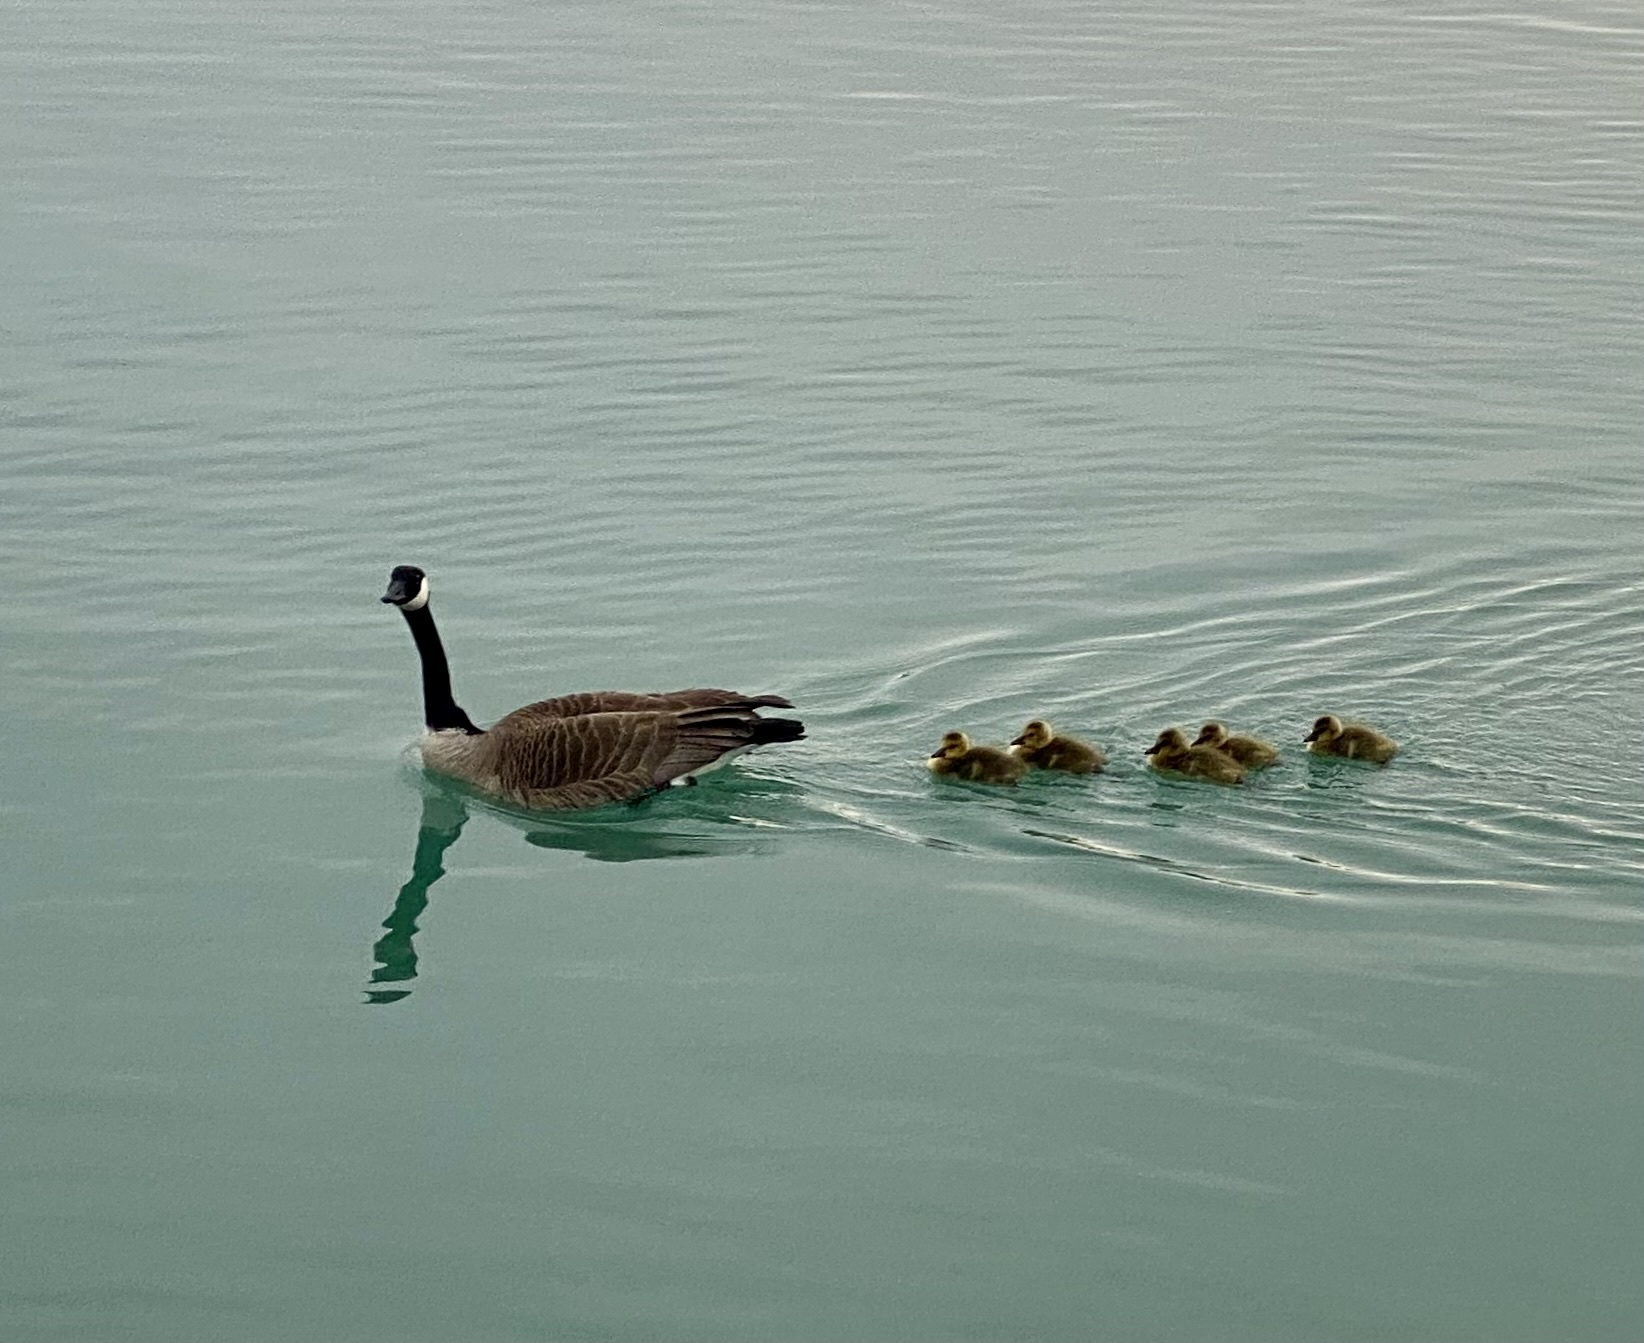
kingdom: Animalia
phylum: Chordata
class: Aves
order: Anseriformes
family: Anatidae
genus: Branta
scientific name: Branta canadensis
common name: Canada goose
